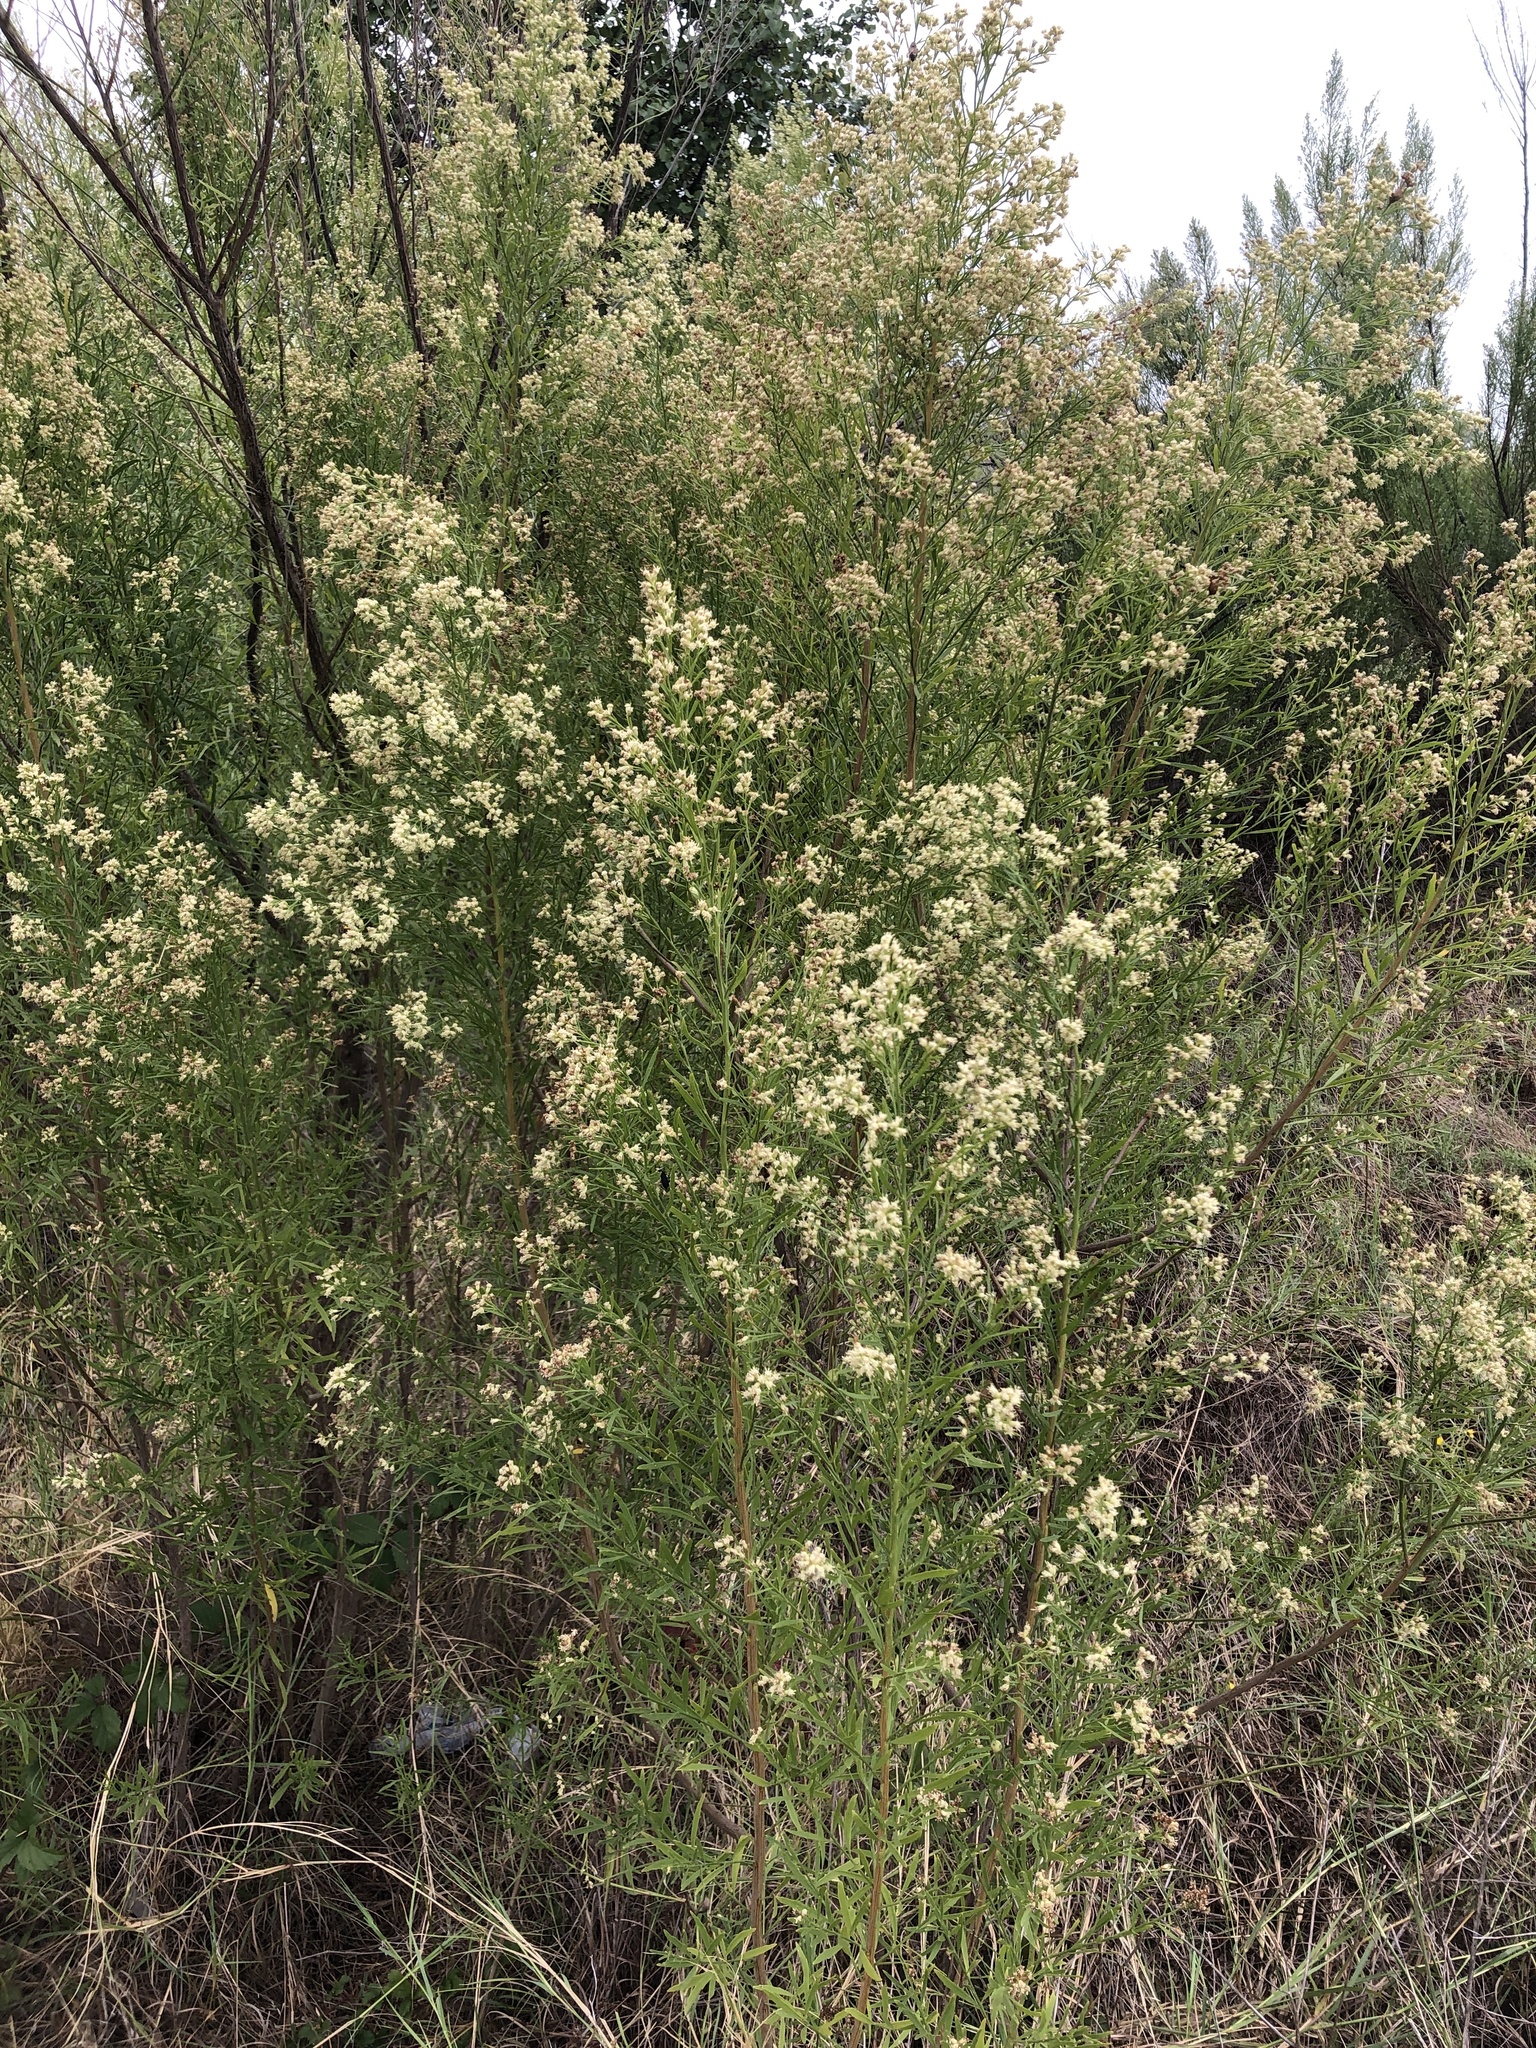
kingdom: Plantae
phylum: Tracheophyta
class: Magnoliopsida
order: Asterales
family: Asteraceae
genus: Baccharis
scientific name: Baccharis neglecta
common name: Roosevelt-weed
